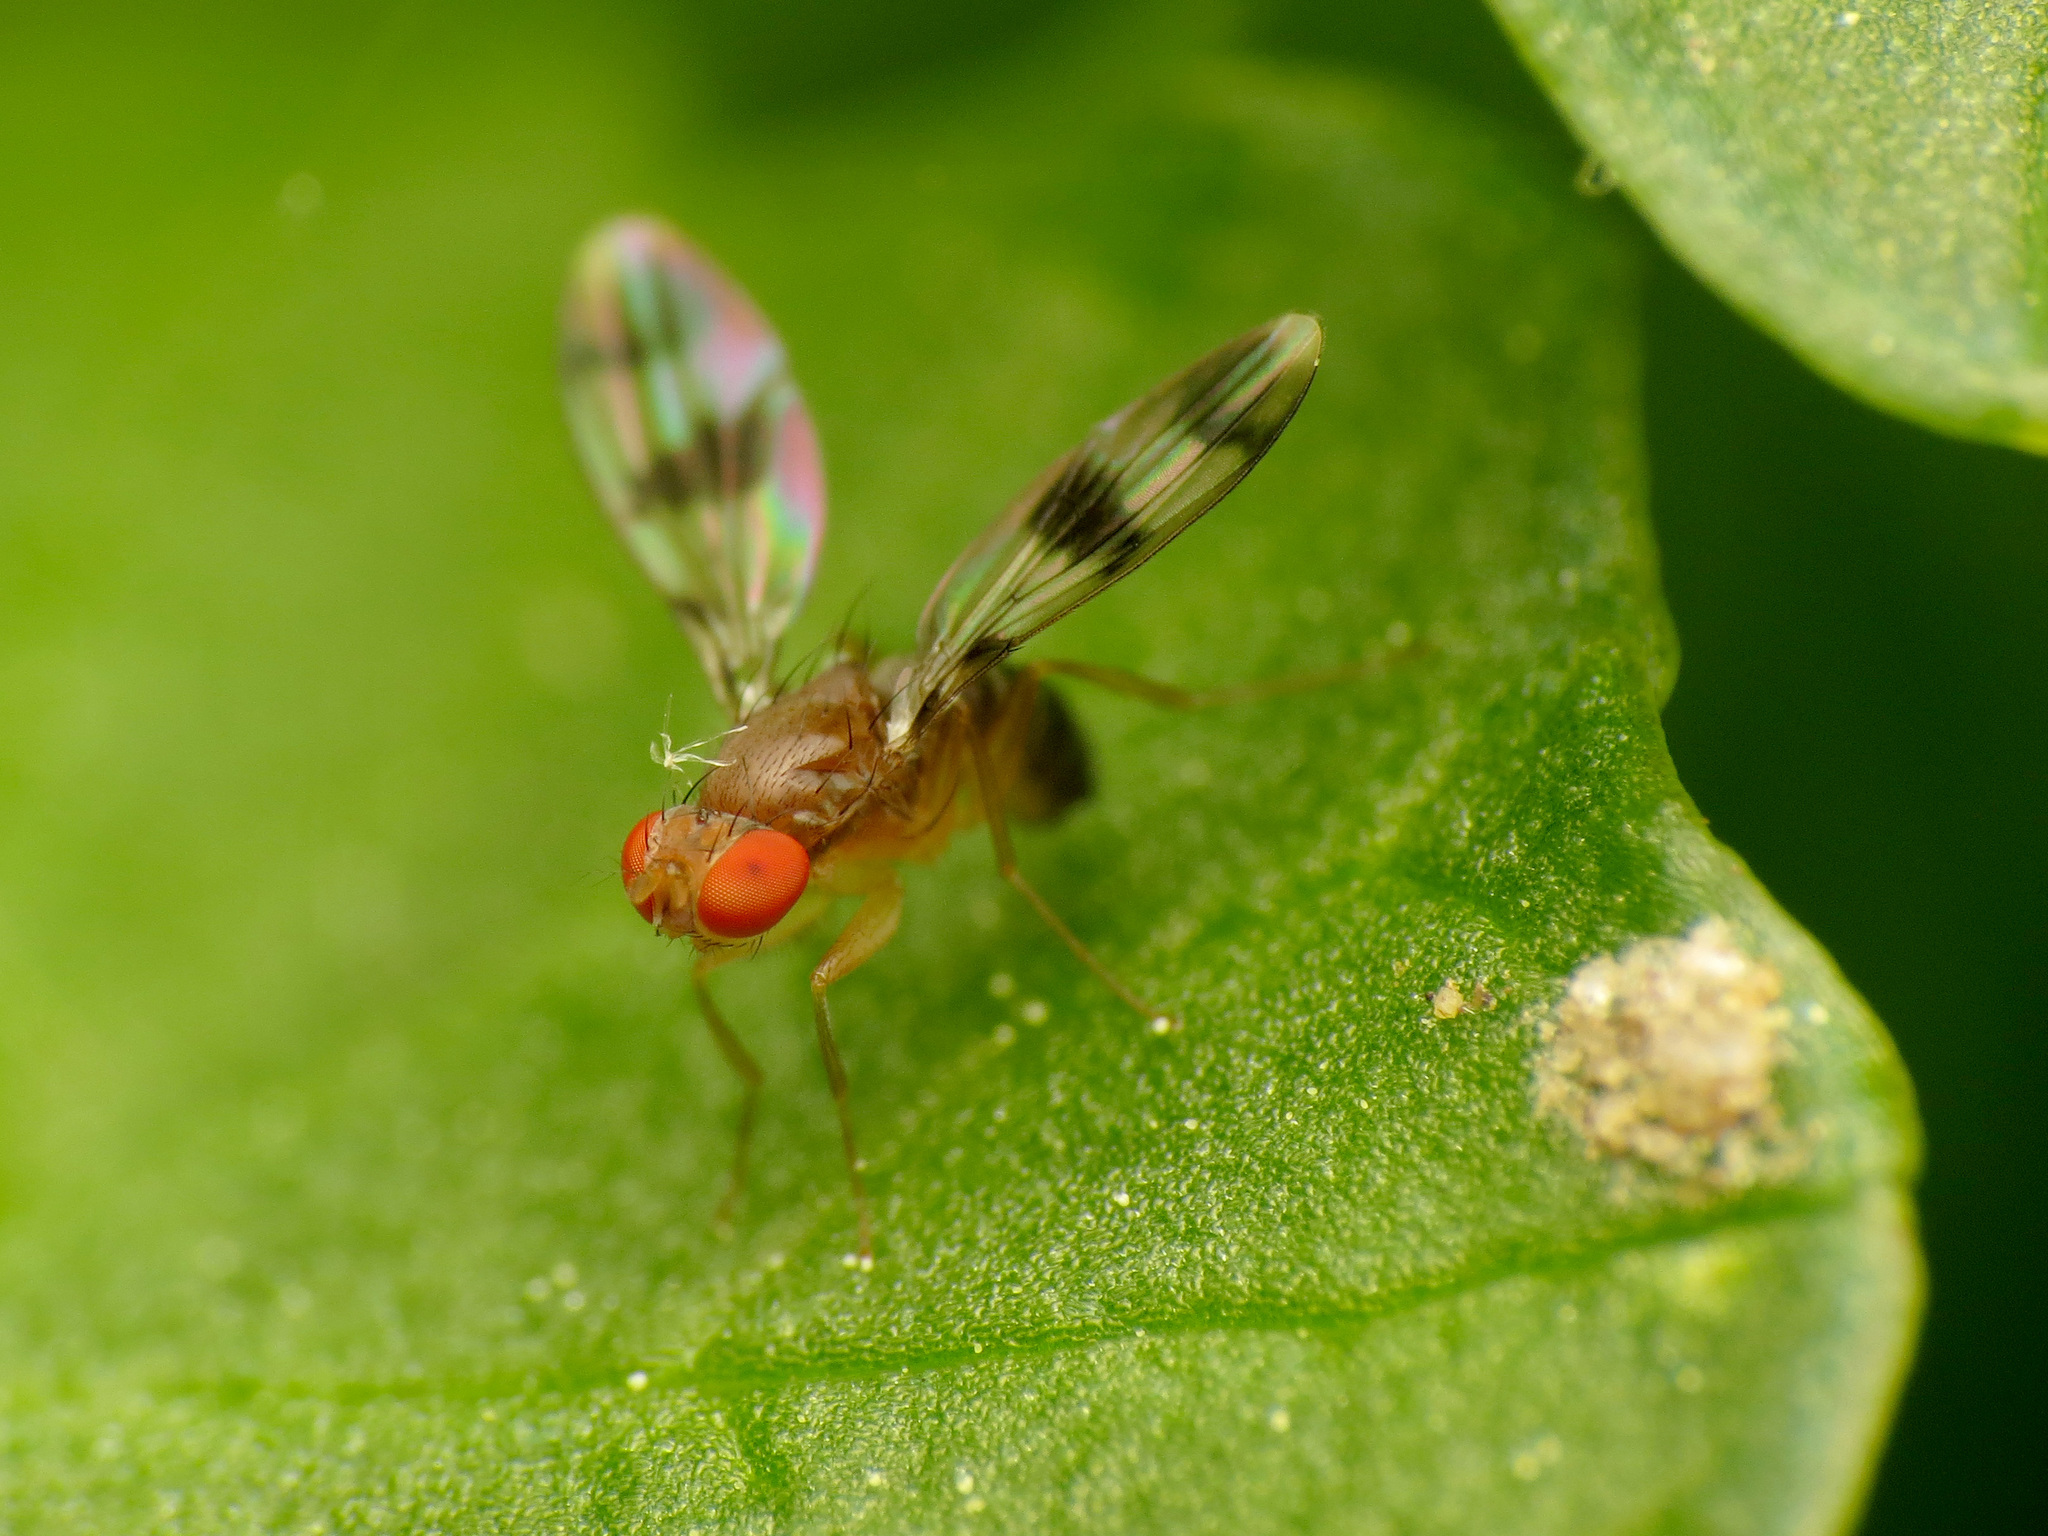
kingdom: Animalia
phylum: Arthropoda
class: Insecta
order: Diptera
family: Drosophilidae
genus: Chymomyza
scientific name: Chymomyza amoena
